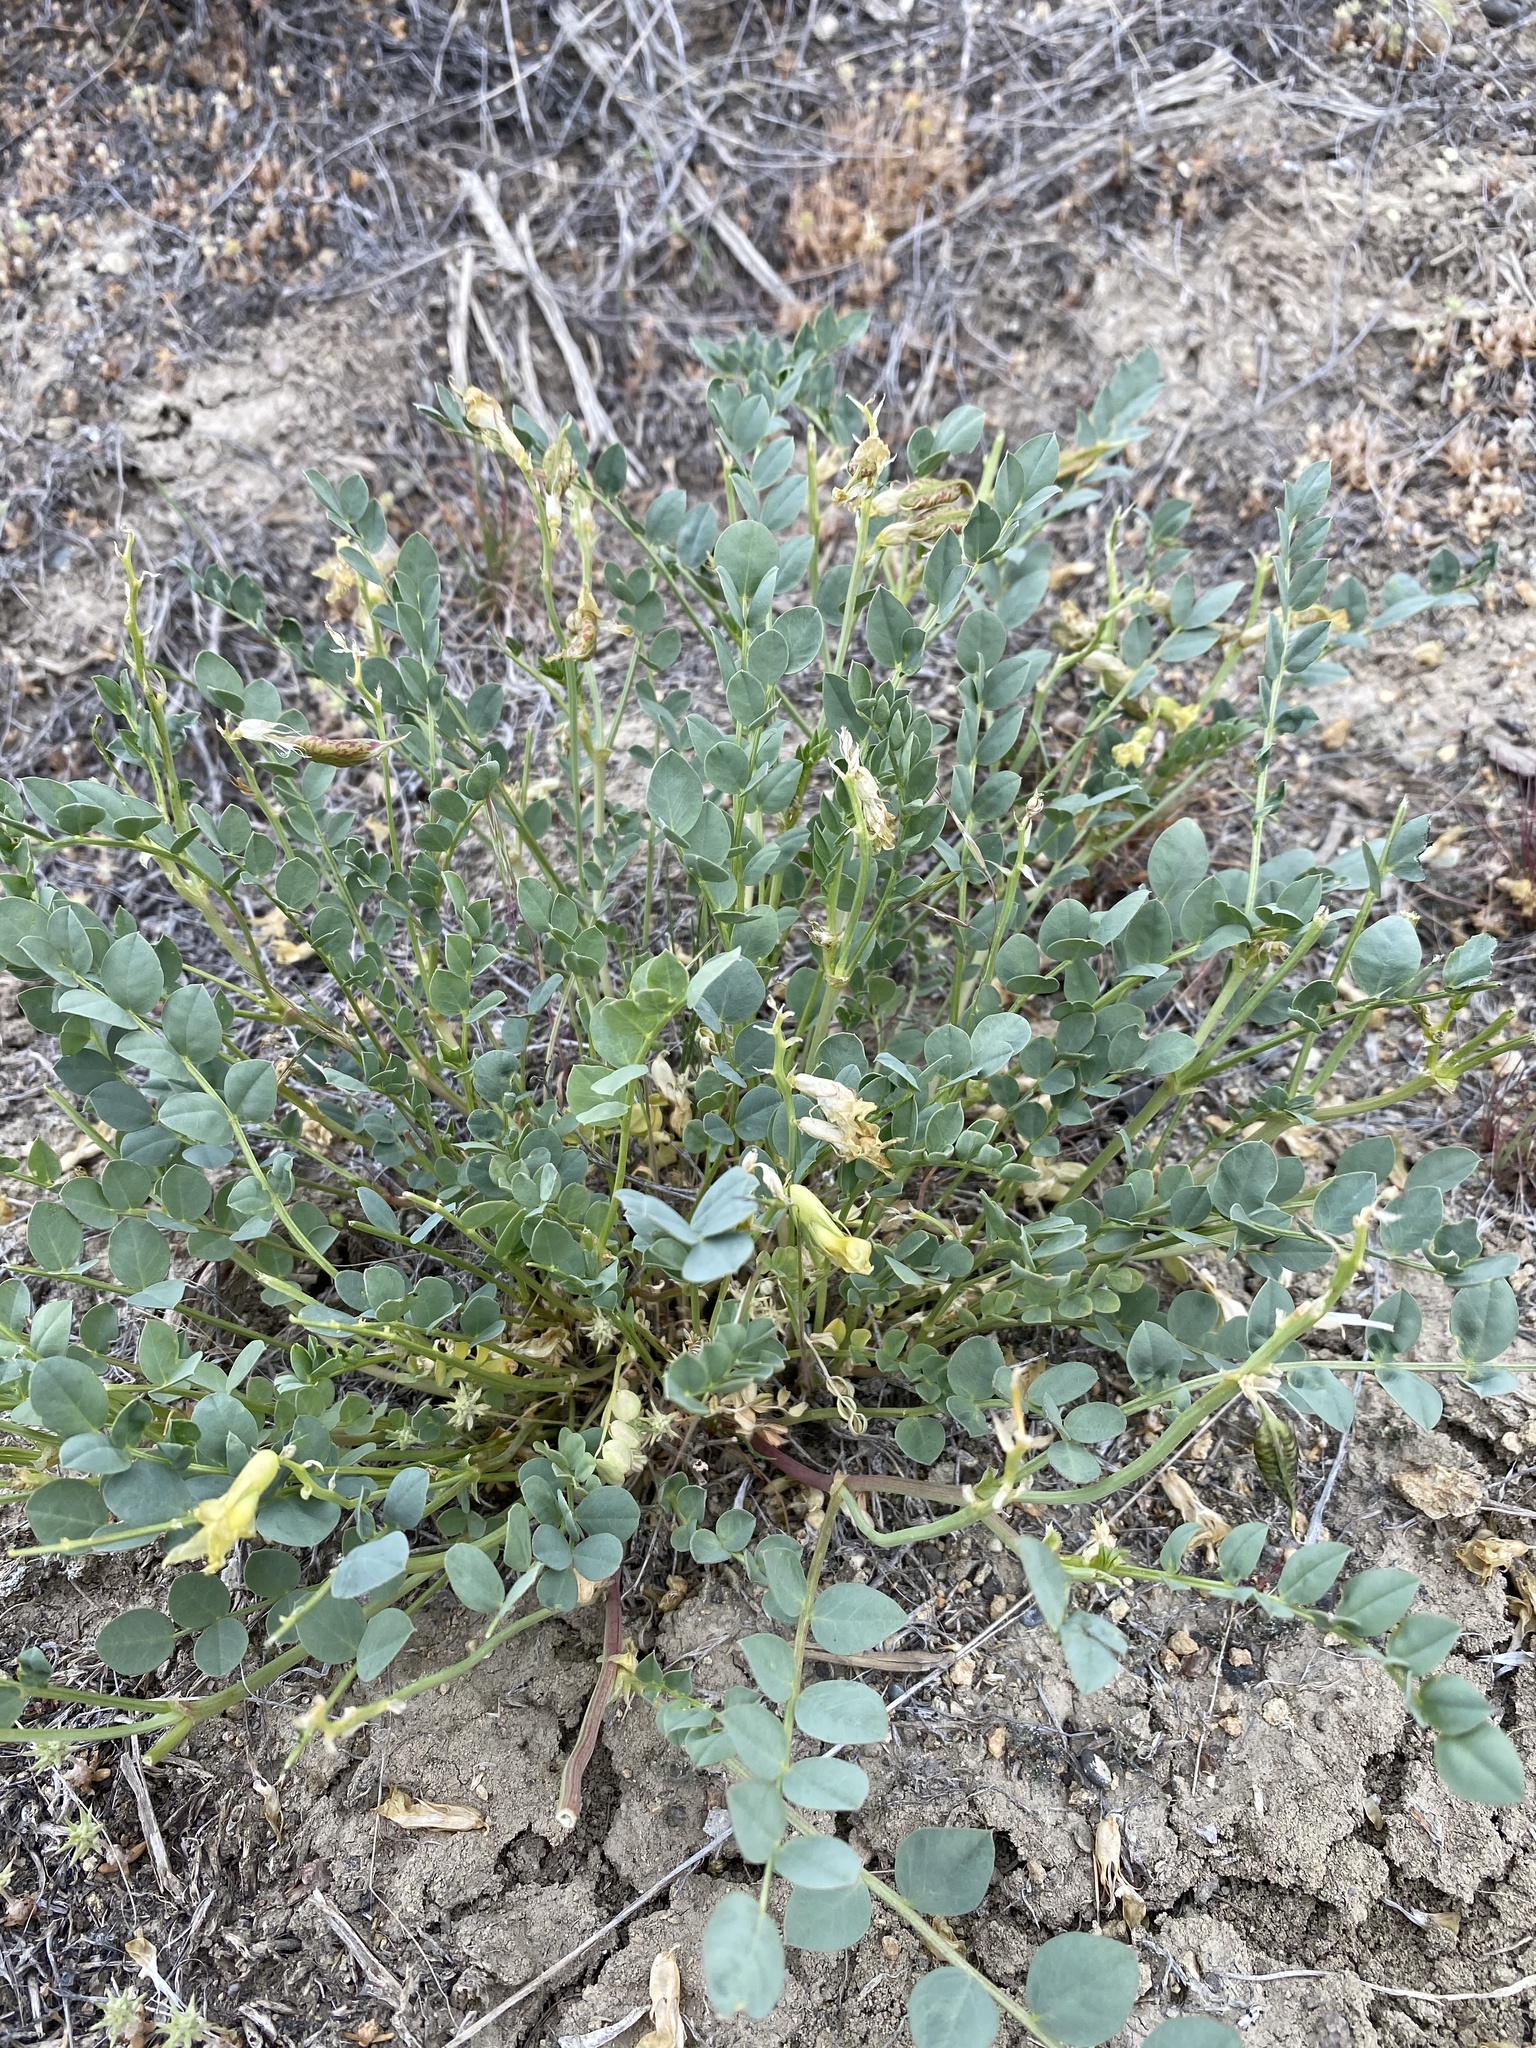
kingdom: Plantae
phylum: Tracheophyta
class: Magnoliopsida
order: Fabales
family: Fabaceae
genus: Astragalus
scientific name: Astragalus beckwithii
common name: Beckwith's milk-vetch
